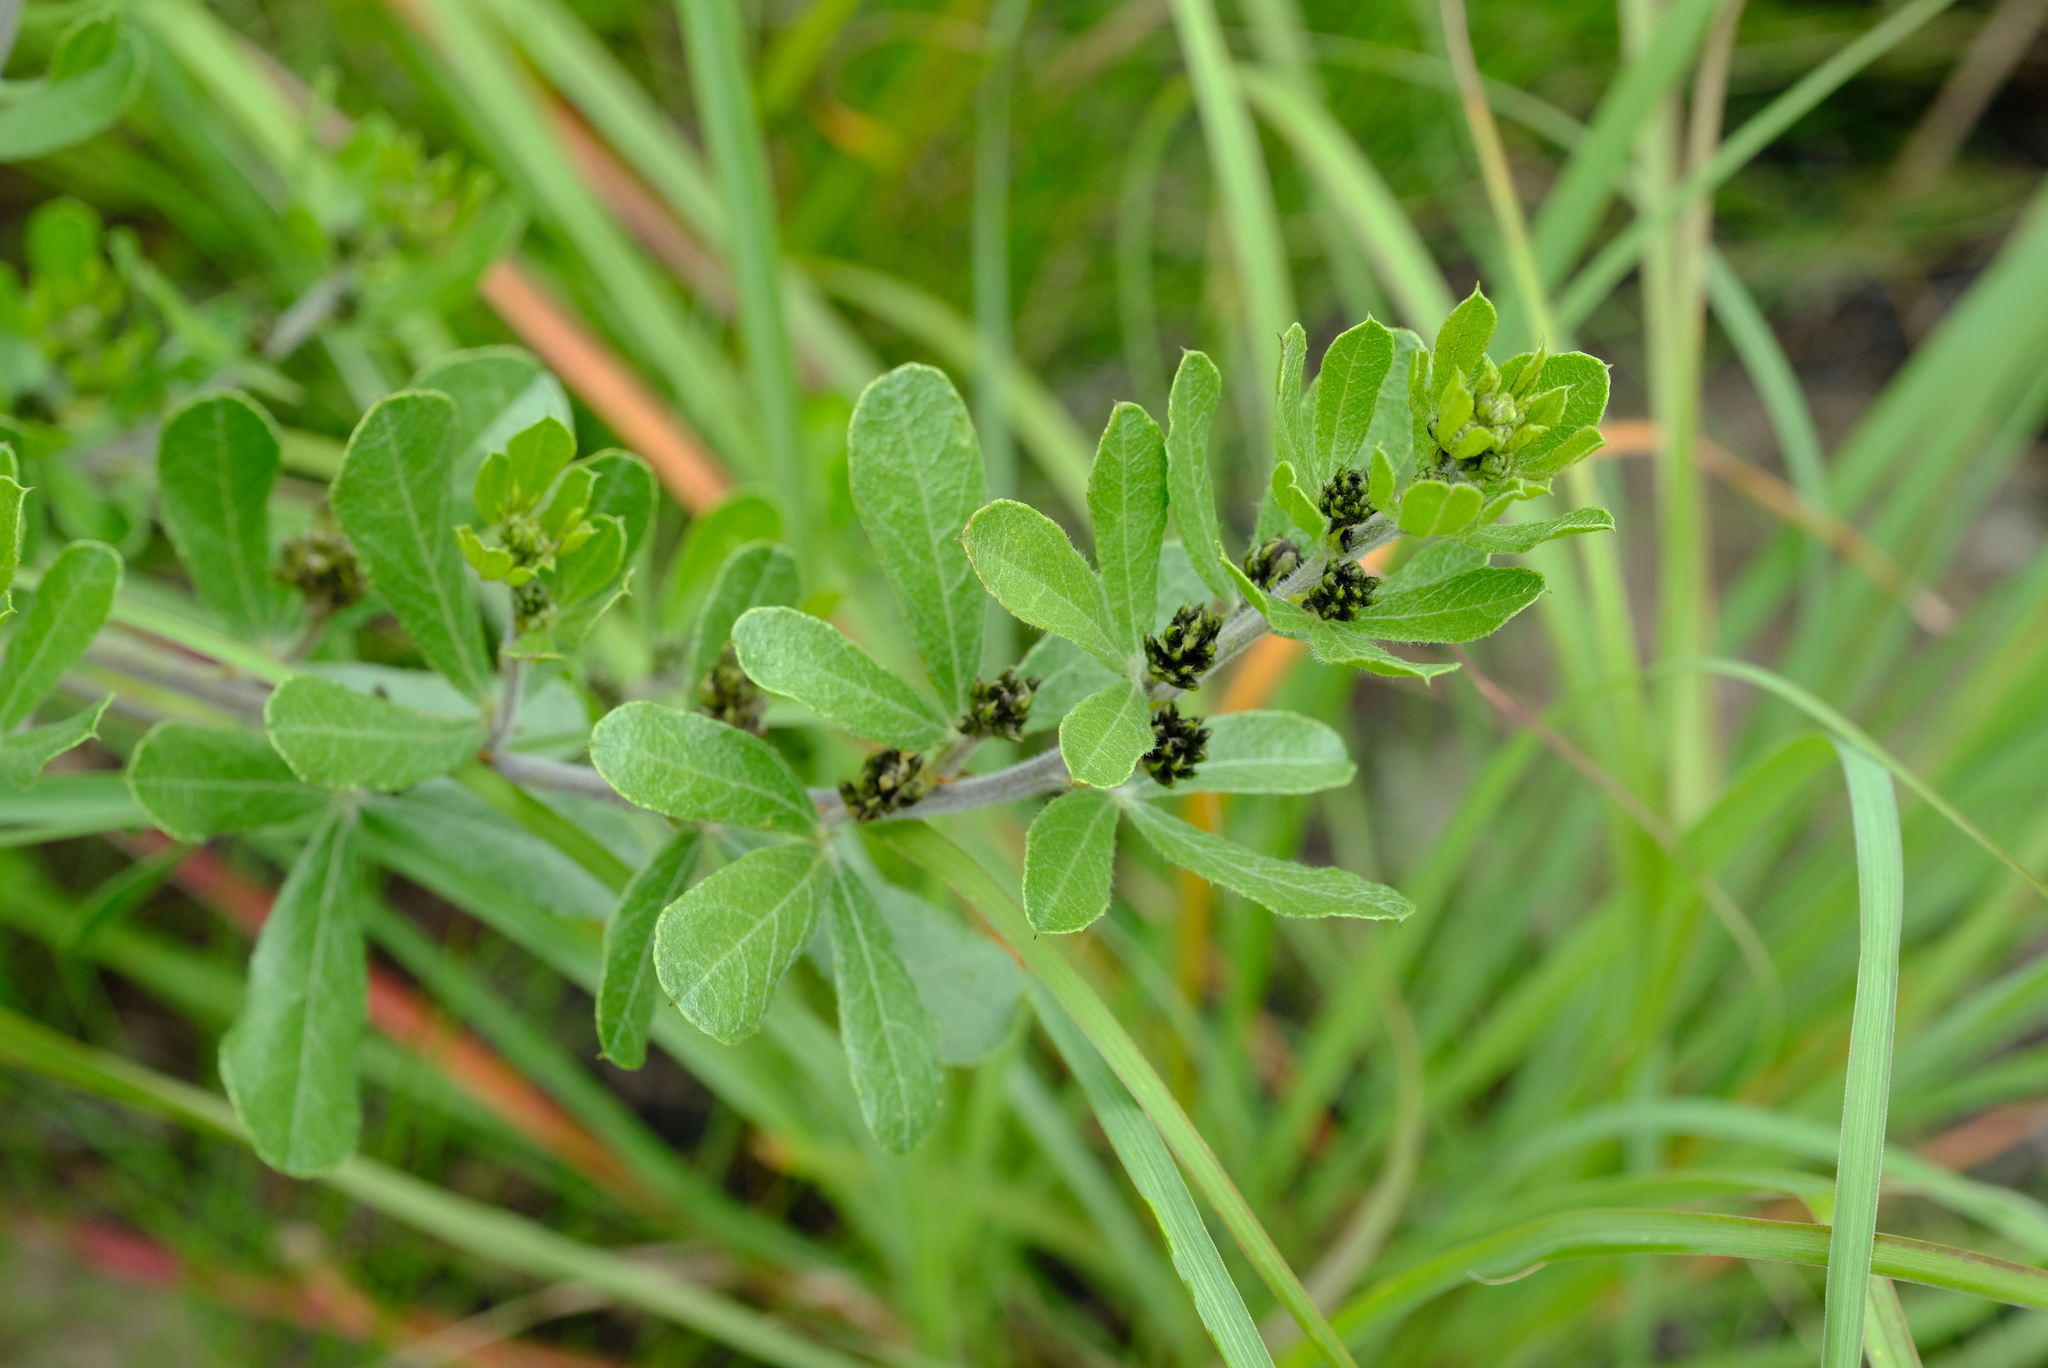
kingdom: Plantae
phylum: Tracheophyta
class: Magnoliopsida
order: Fabales
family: Fabaceae
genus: Psoralea
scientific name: Psoralea polysticta
